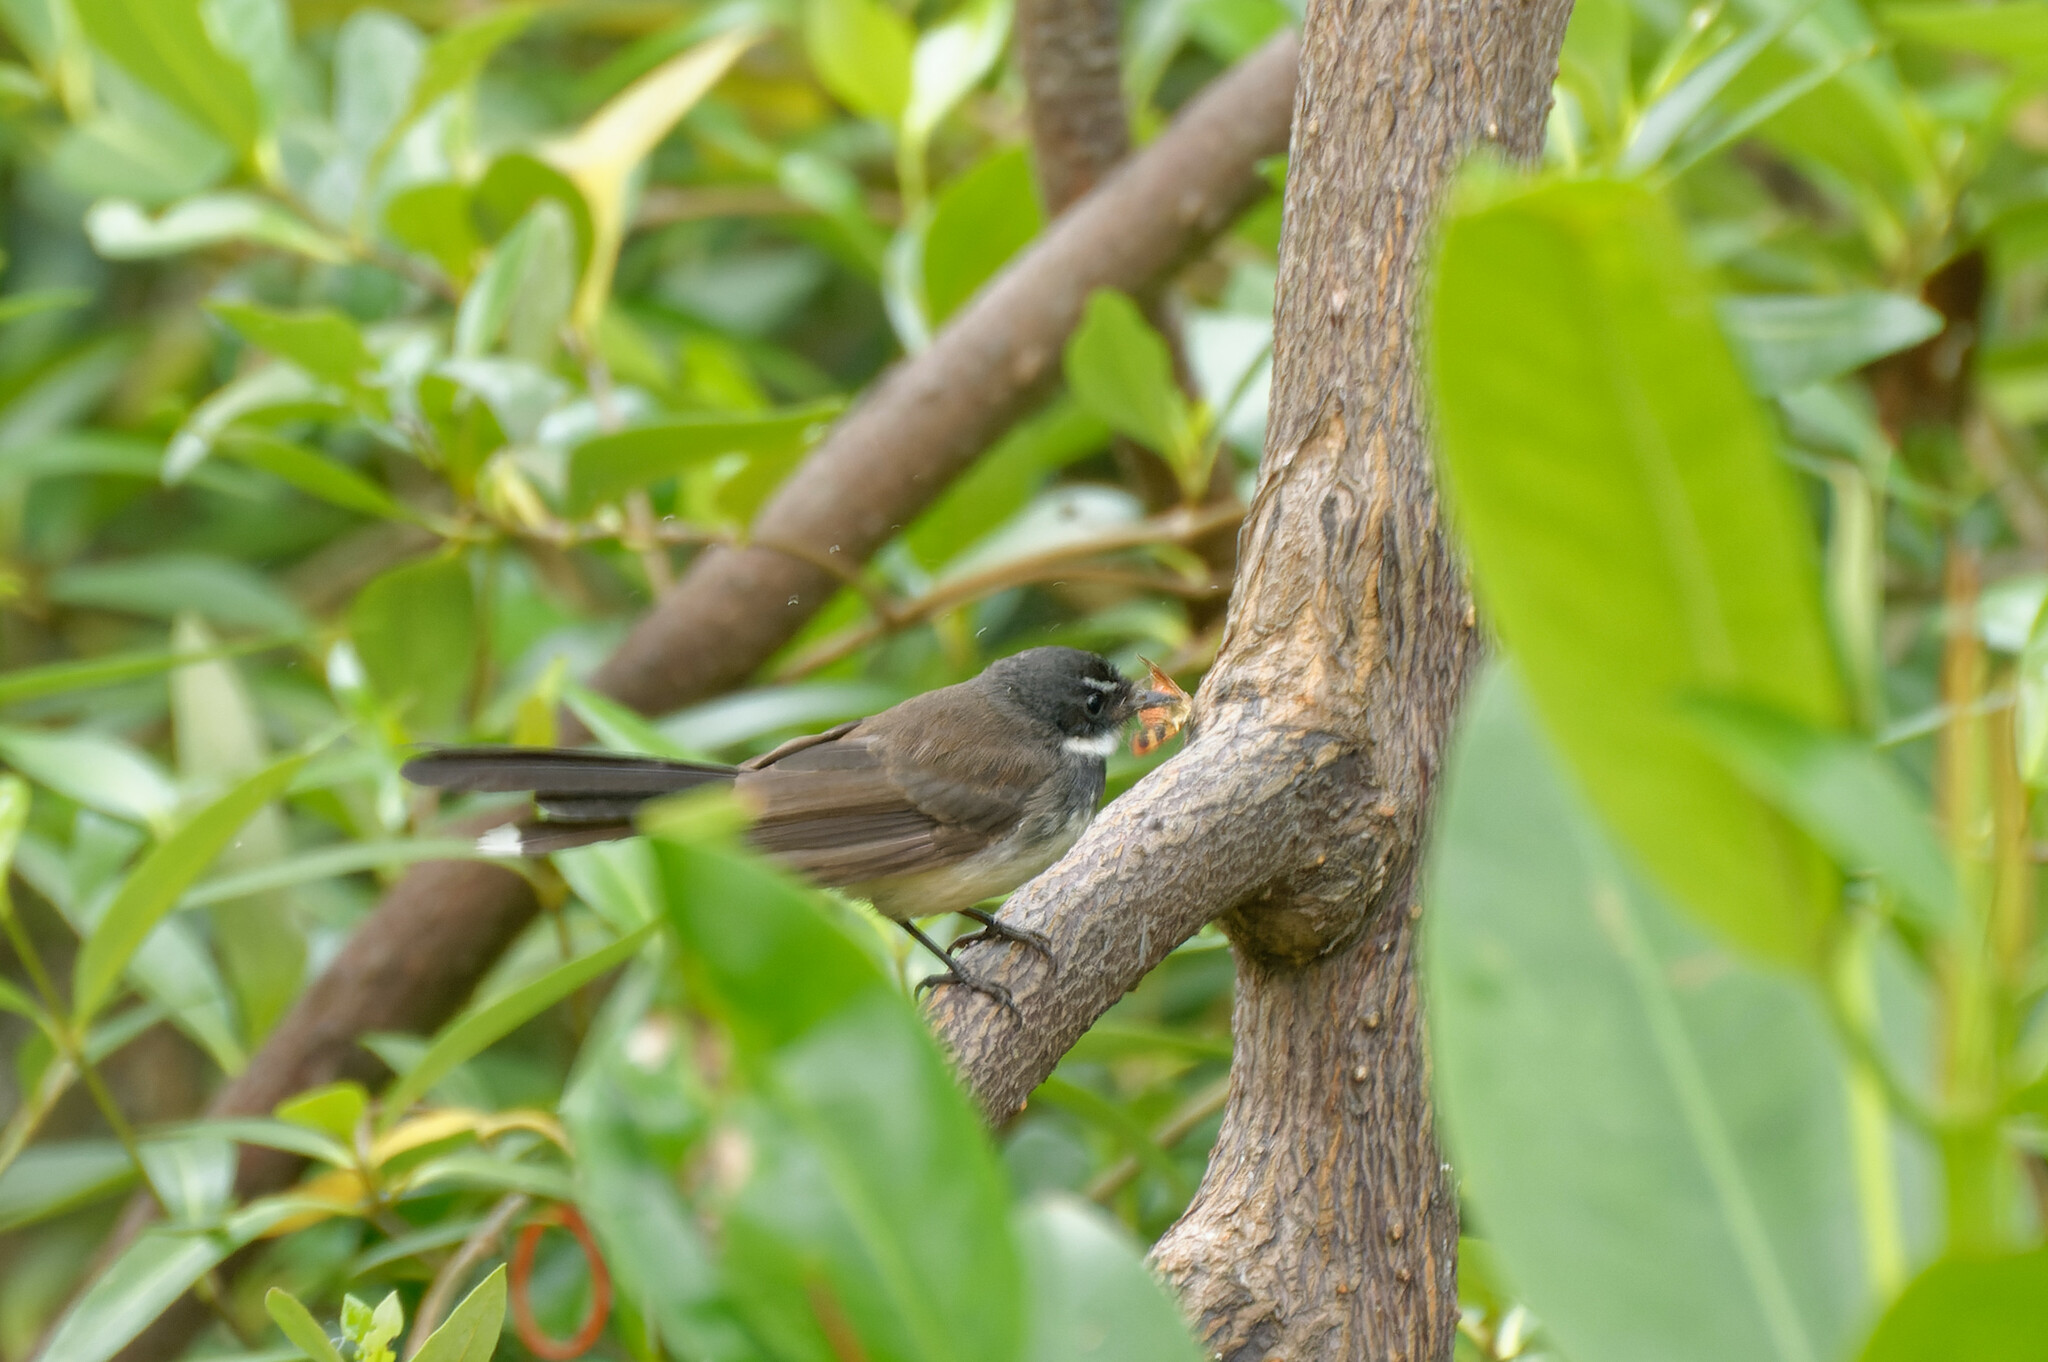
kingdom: Animalia
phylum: Chordata
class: Aves
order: Passeriformes
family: Rhipiduridae
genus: Rhipidura
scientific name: Rhipidura javanica
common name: Pied fantail
